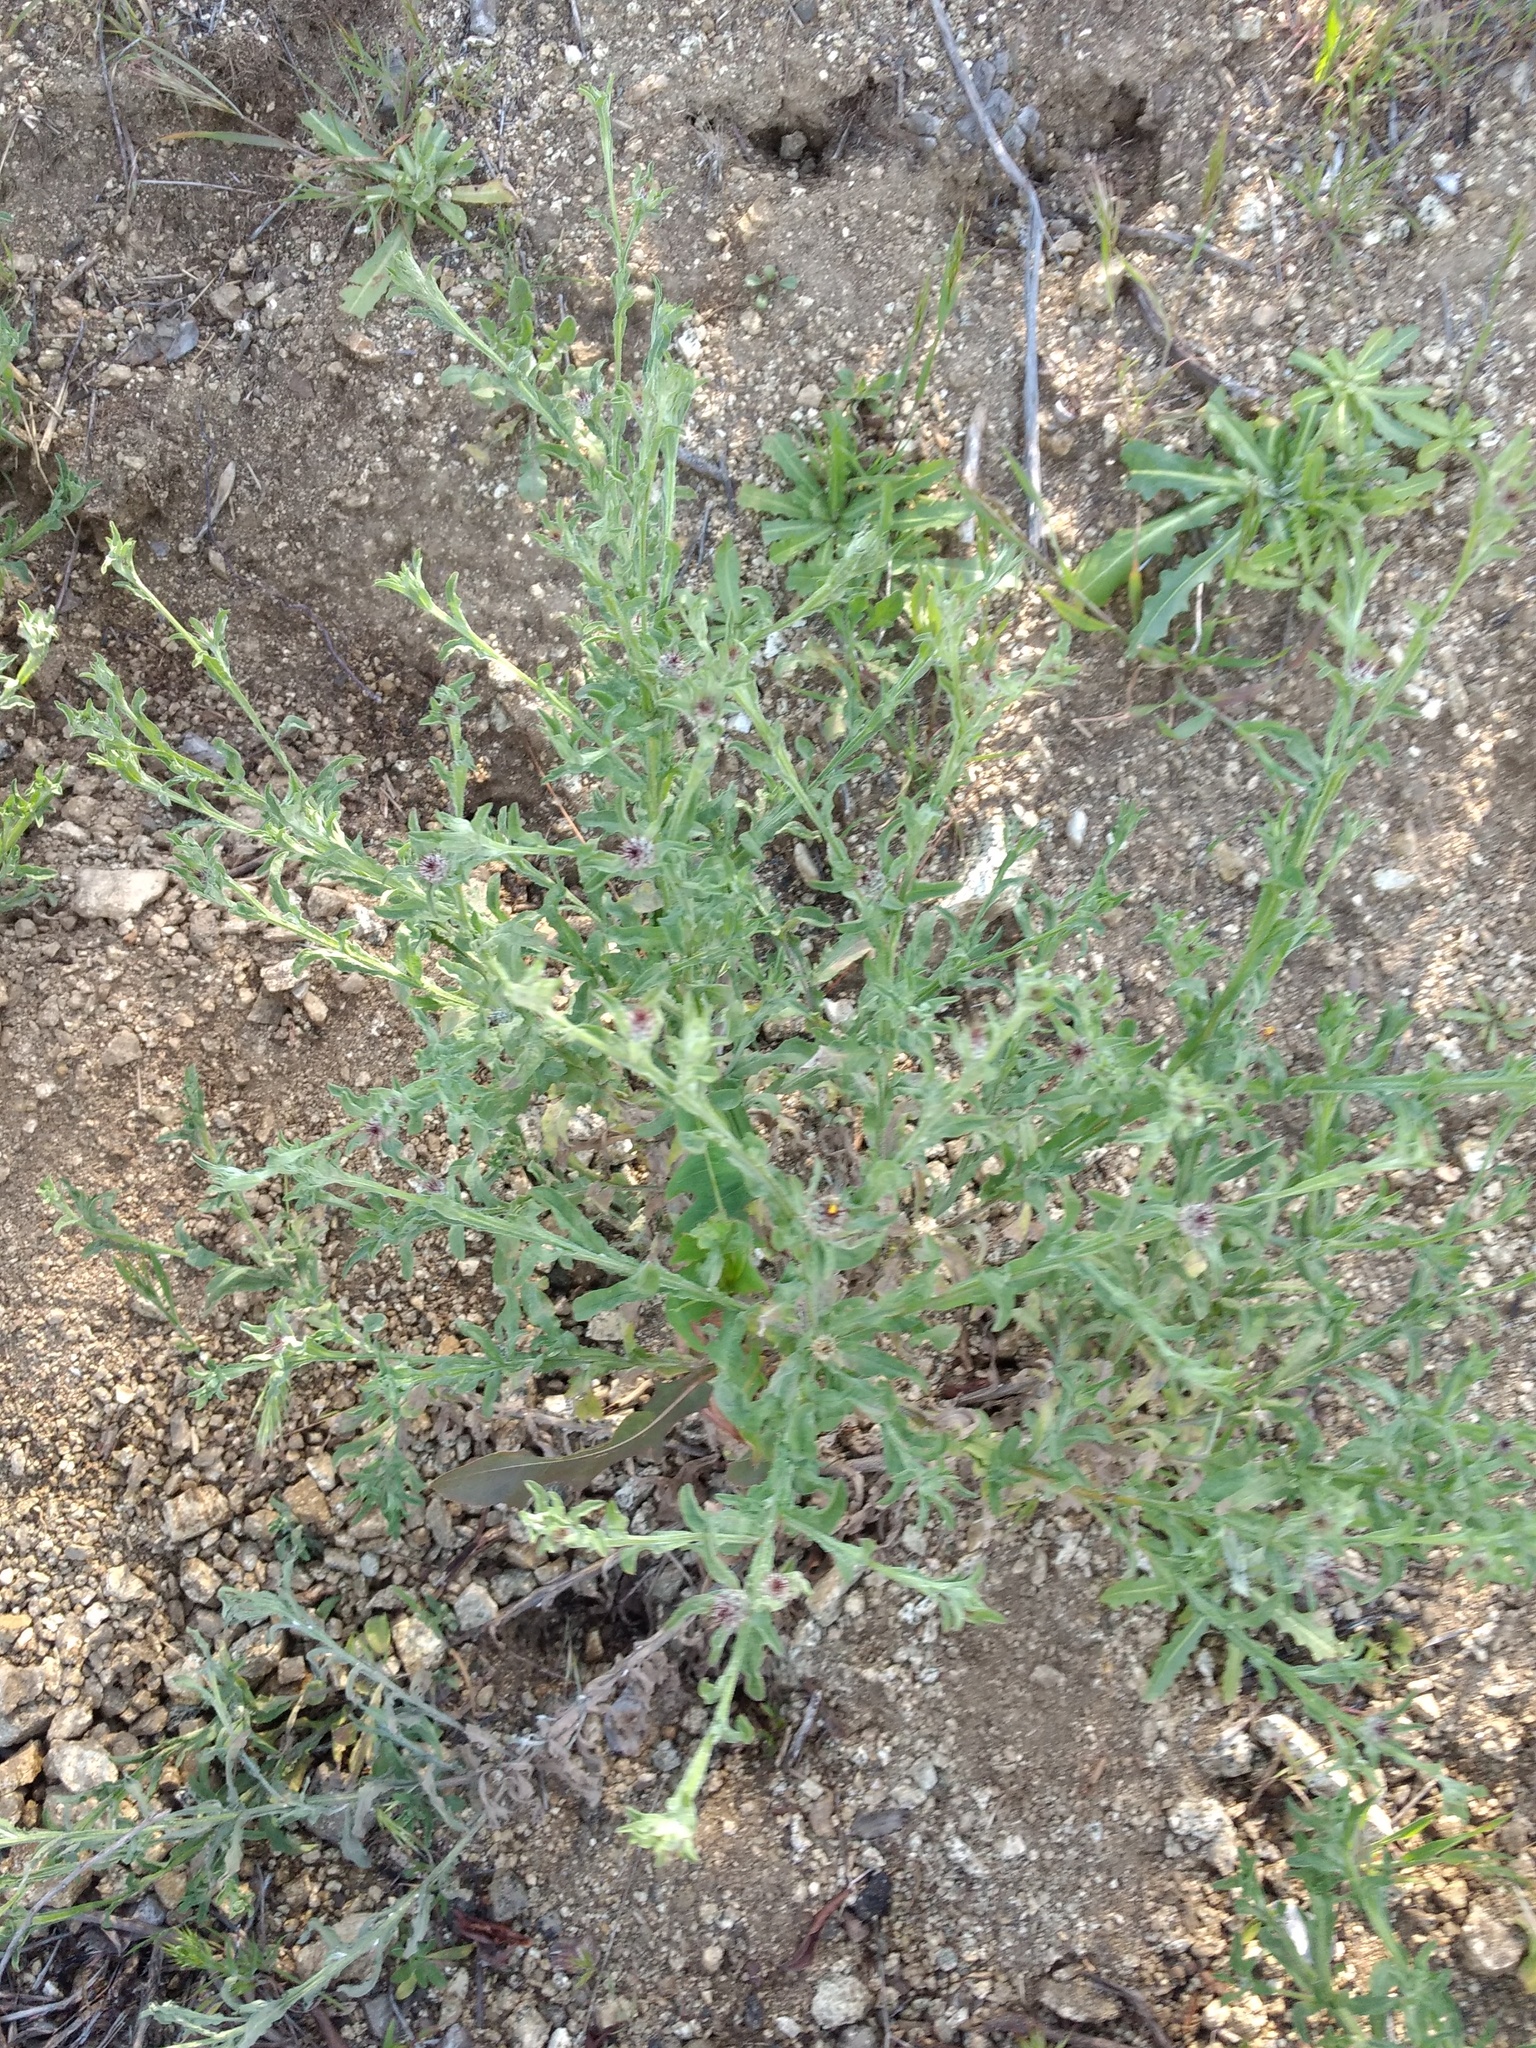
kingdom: Plantae
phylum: Tracheophyta
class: Magnoliopsida
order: Asterales
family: Asteraceae
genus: Centaurea
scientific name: Centaurea melitensis
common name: Maltese star-thistle
